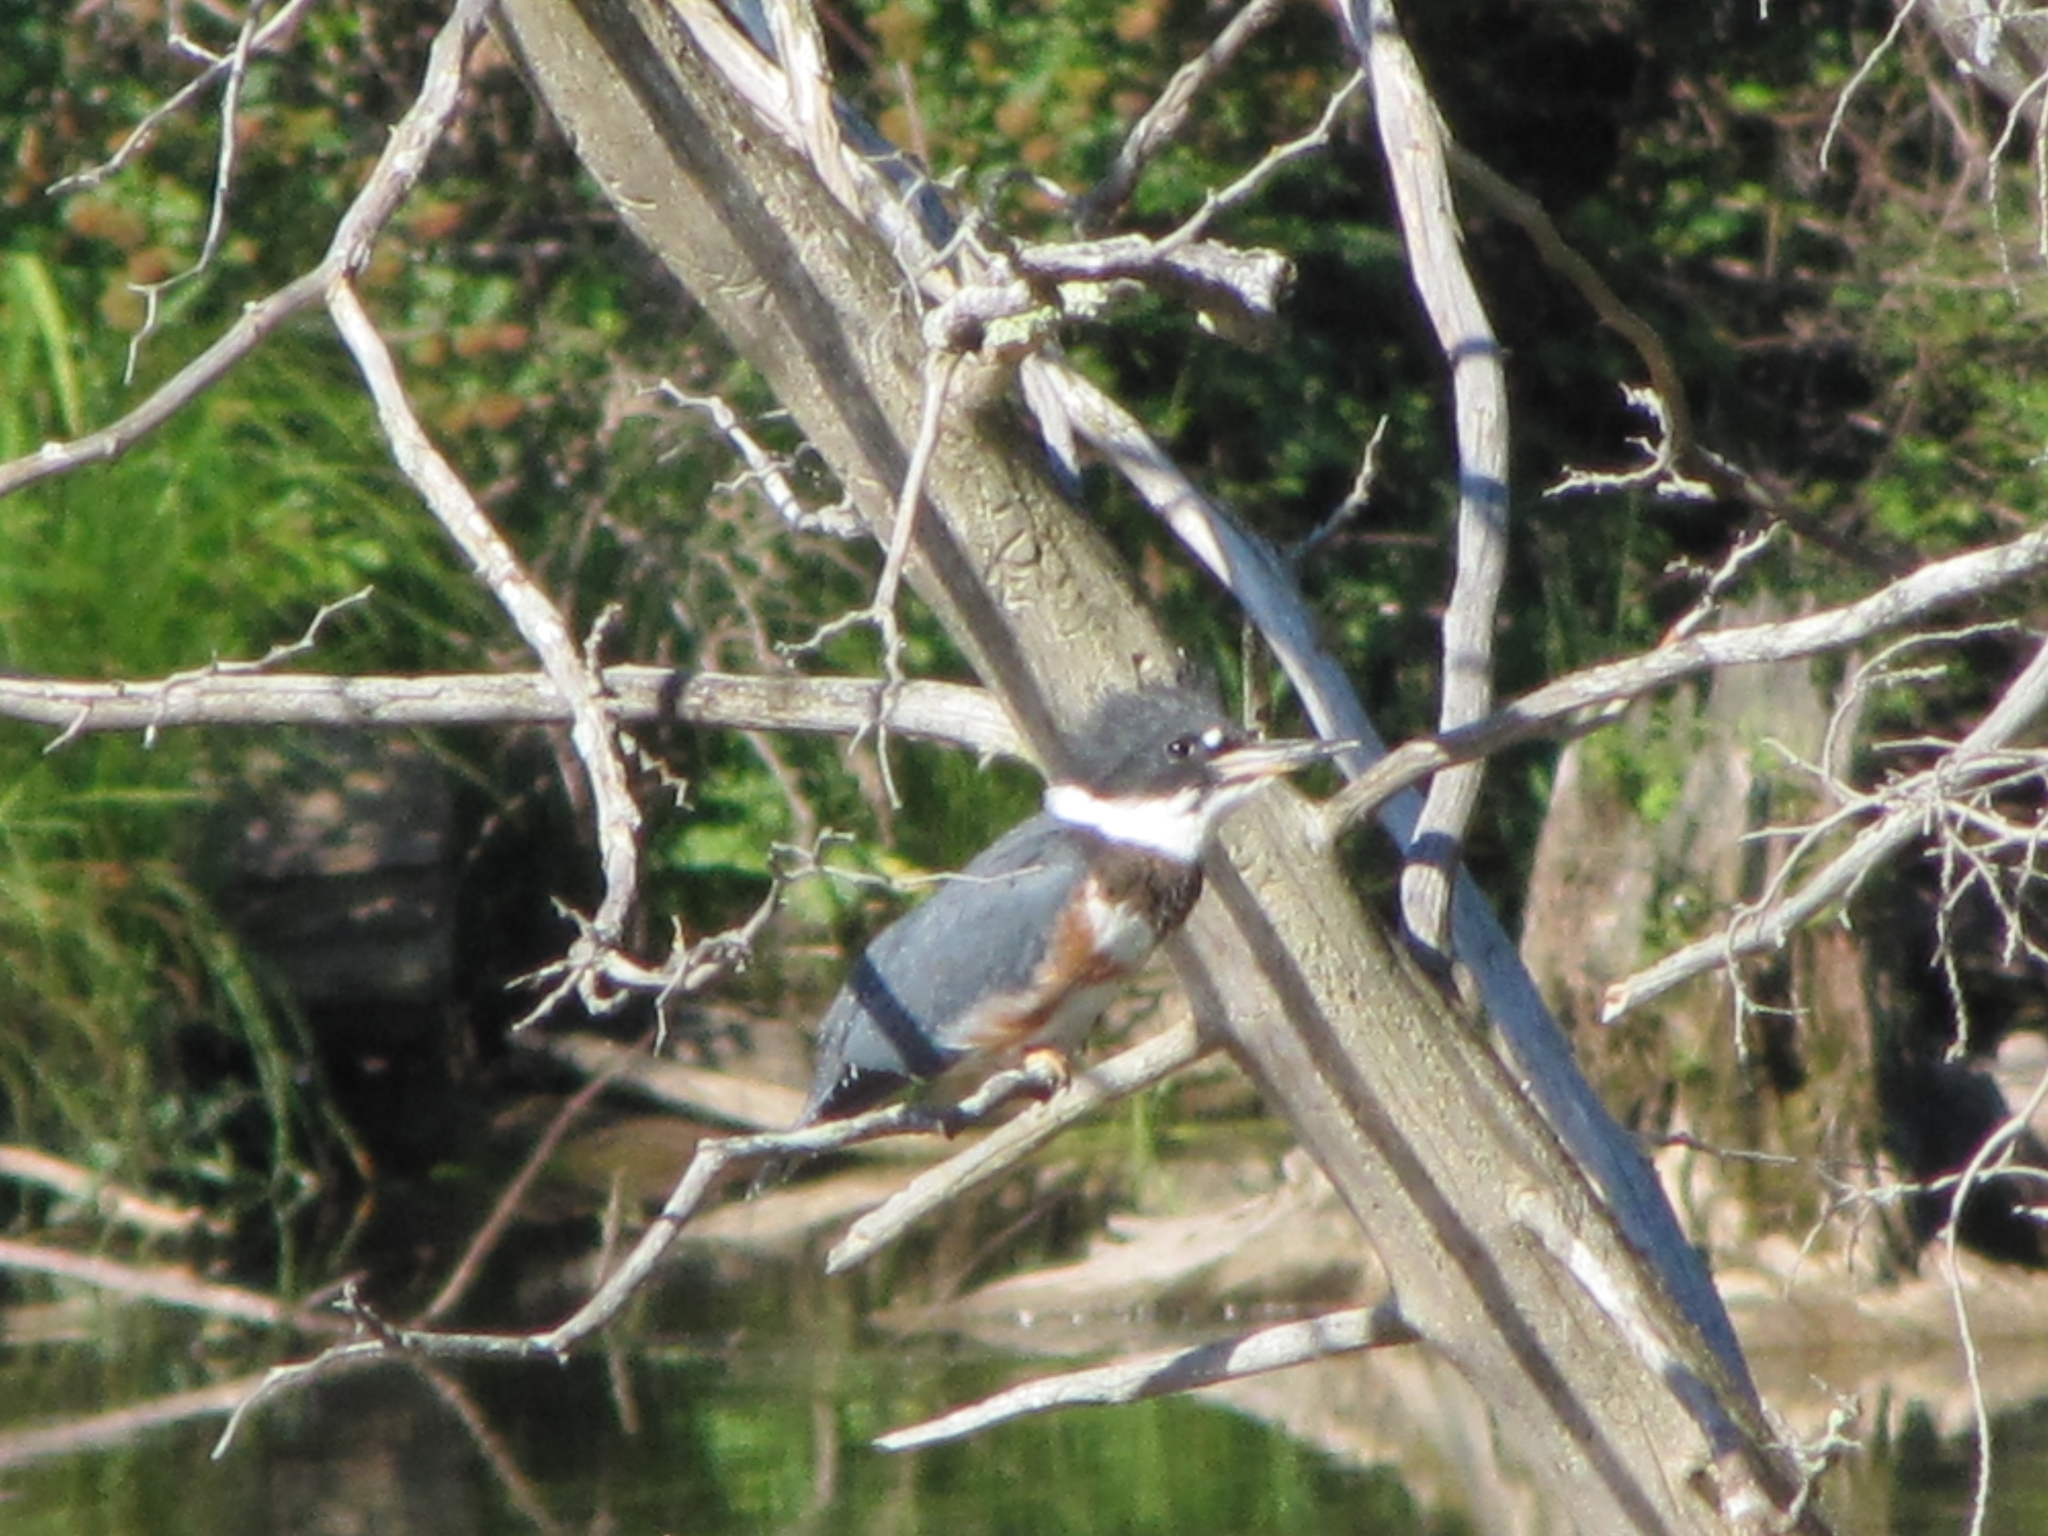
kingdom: Animalia
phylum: Chordata
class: Aves
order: Coraciiformes
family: Alcedinidae
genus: Megaceryle
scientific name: Megaceryle alcyon
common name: Belted kingfisher
